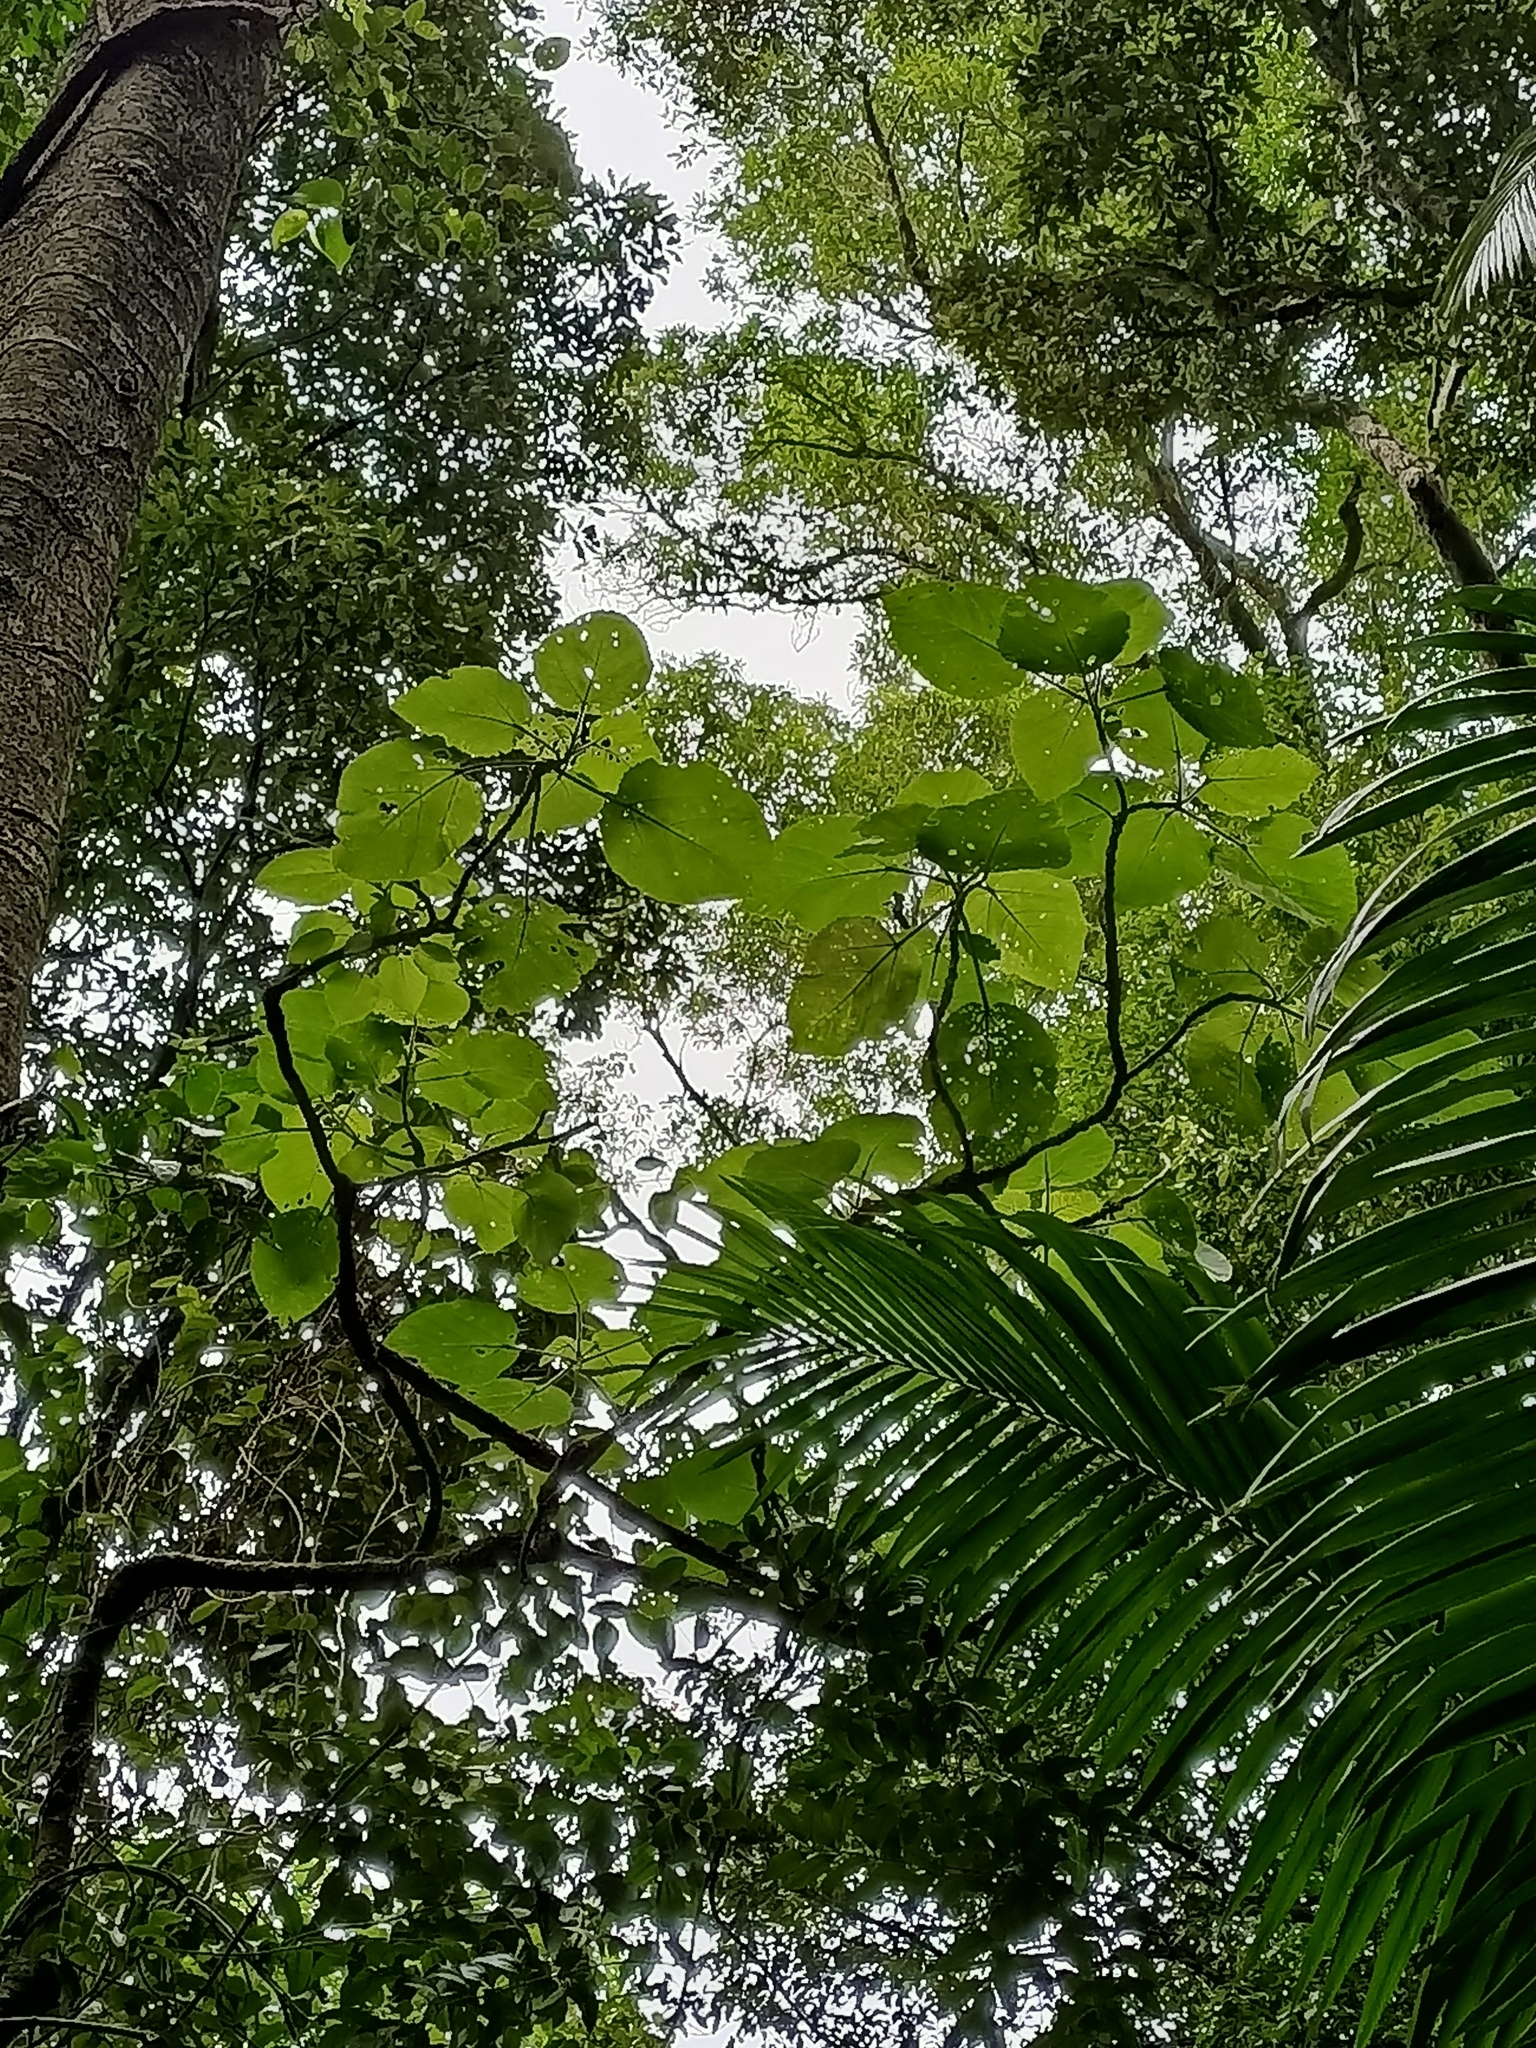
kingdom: Plantae
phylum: Tracheophyta
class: Magnoliopsida
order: Rosales
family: Urticaceae
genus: Dendrocnide
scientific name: Dendrocnide excelsa
